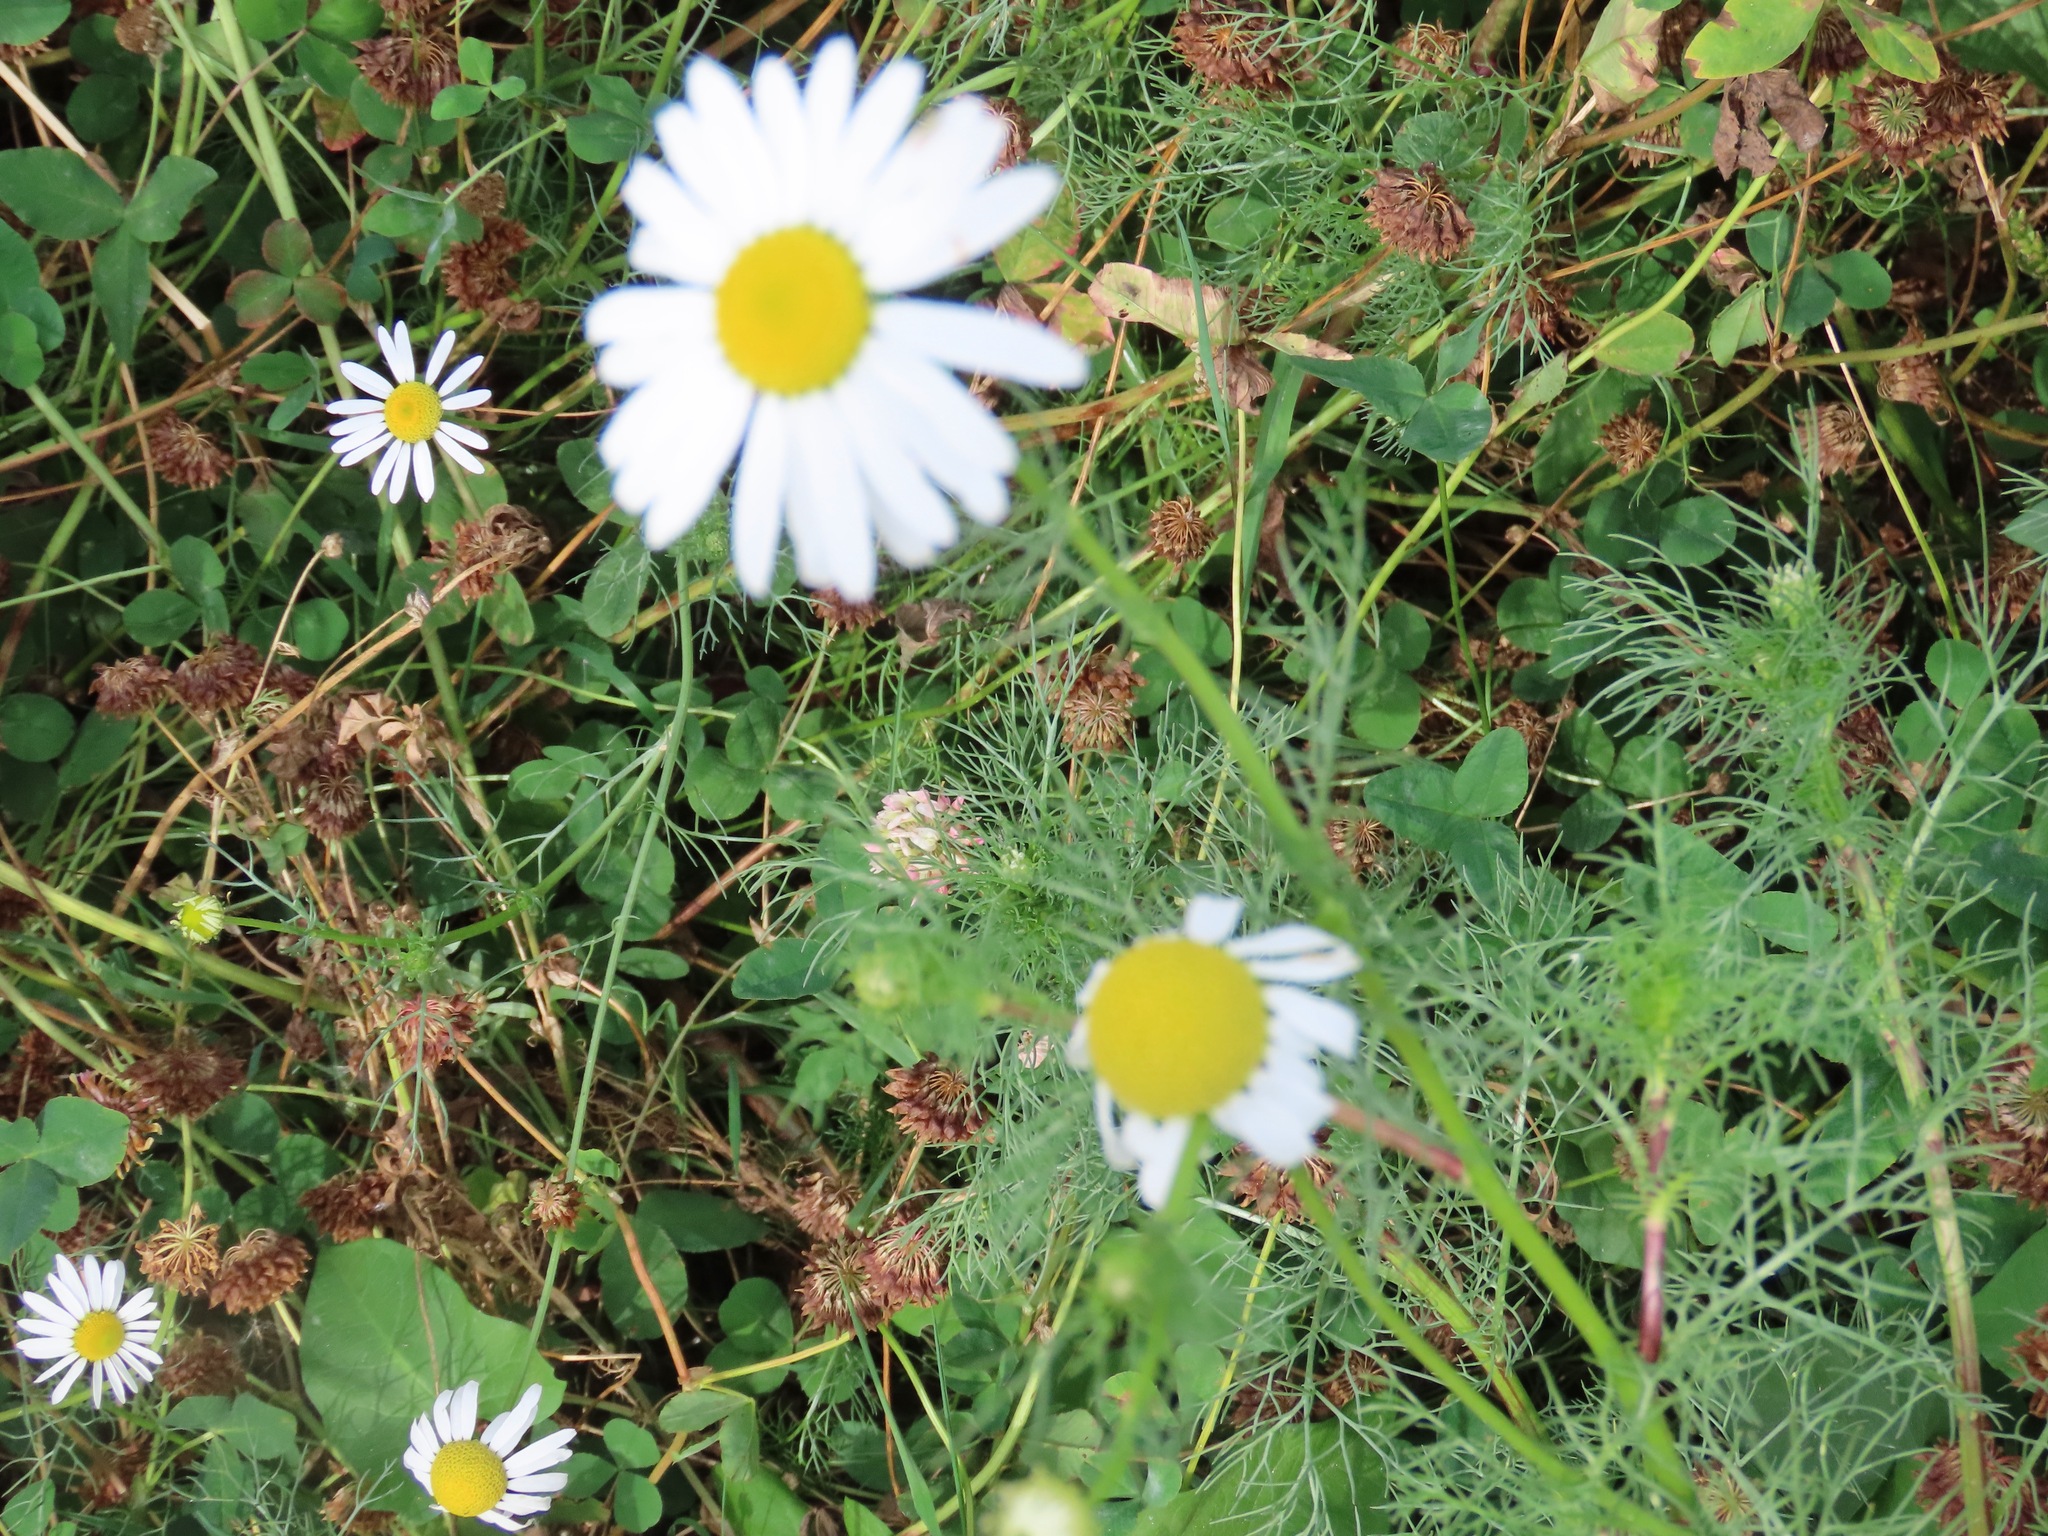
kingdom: Plantae
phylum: Tracheophyta
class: Magnoliopsida
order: Asterales
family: Asteraceae
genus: Tripleurospermum
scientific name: Tripleurospermum inodorum
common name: Scentless mayweed
